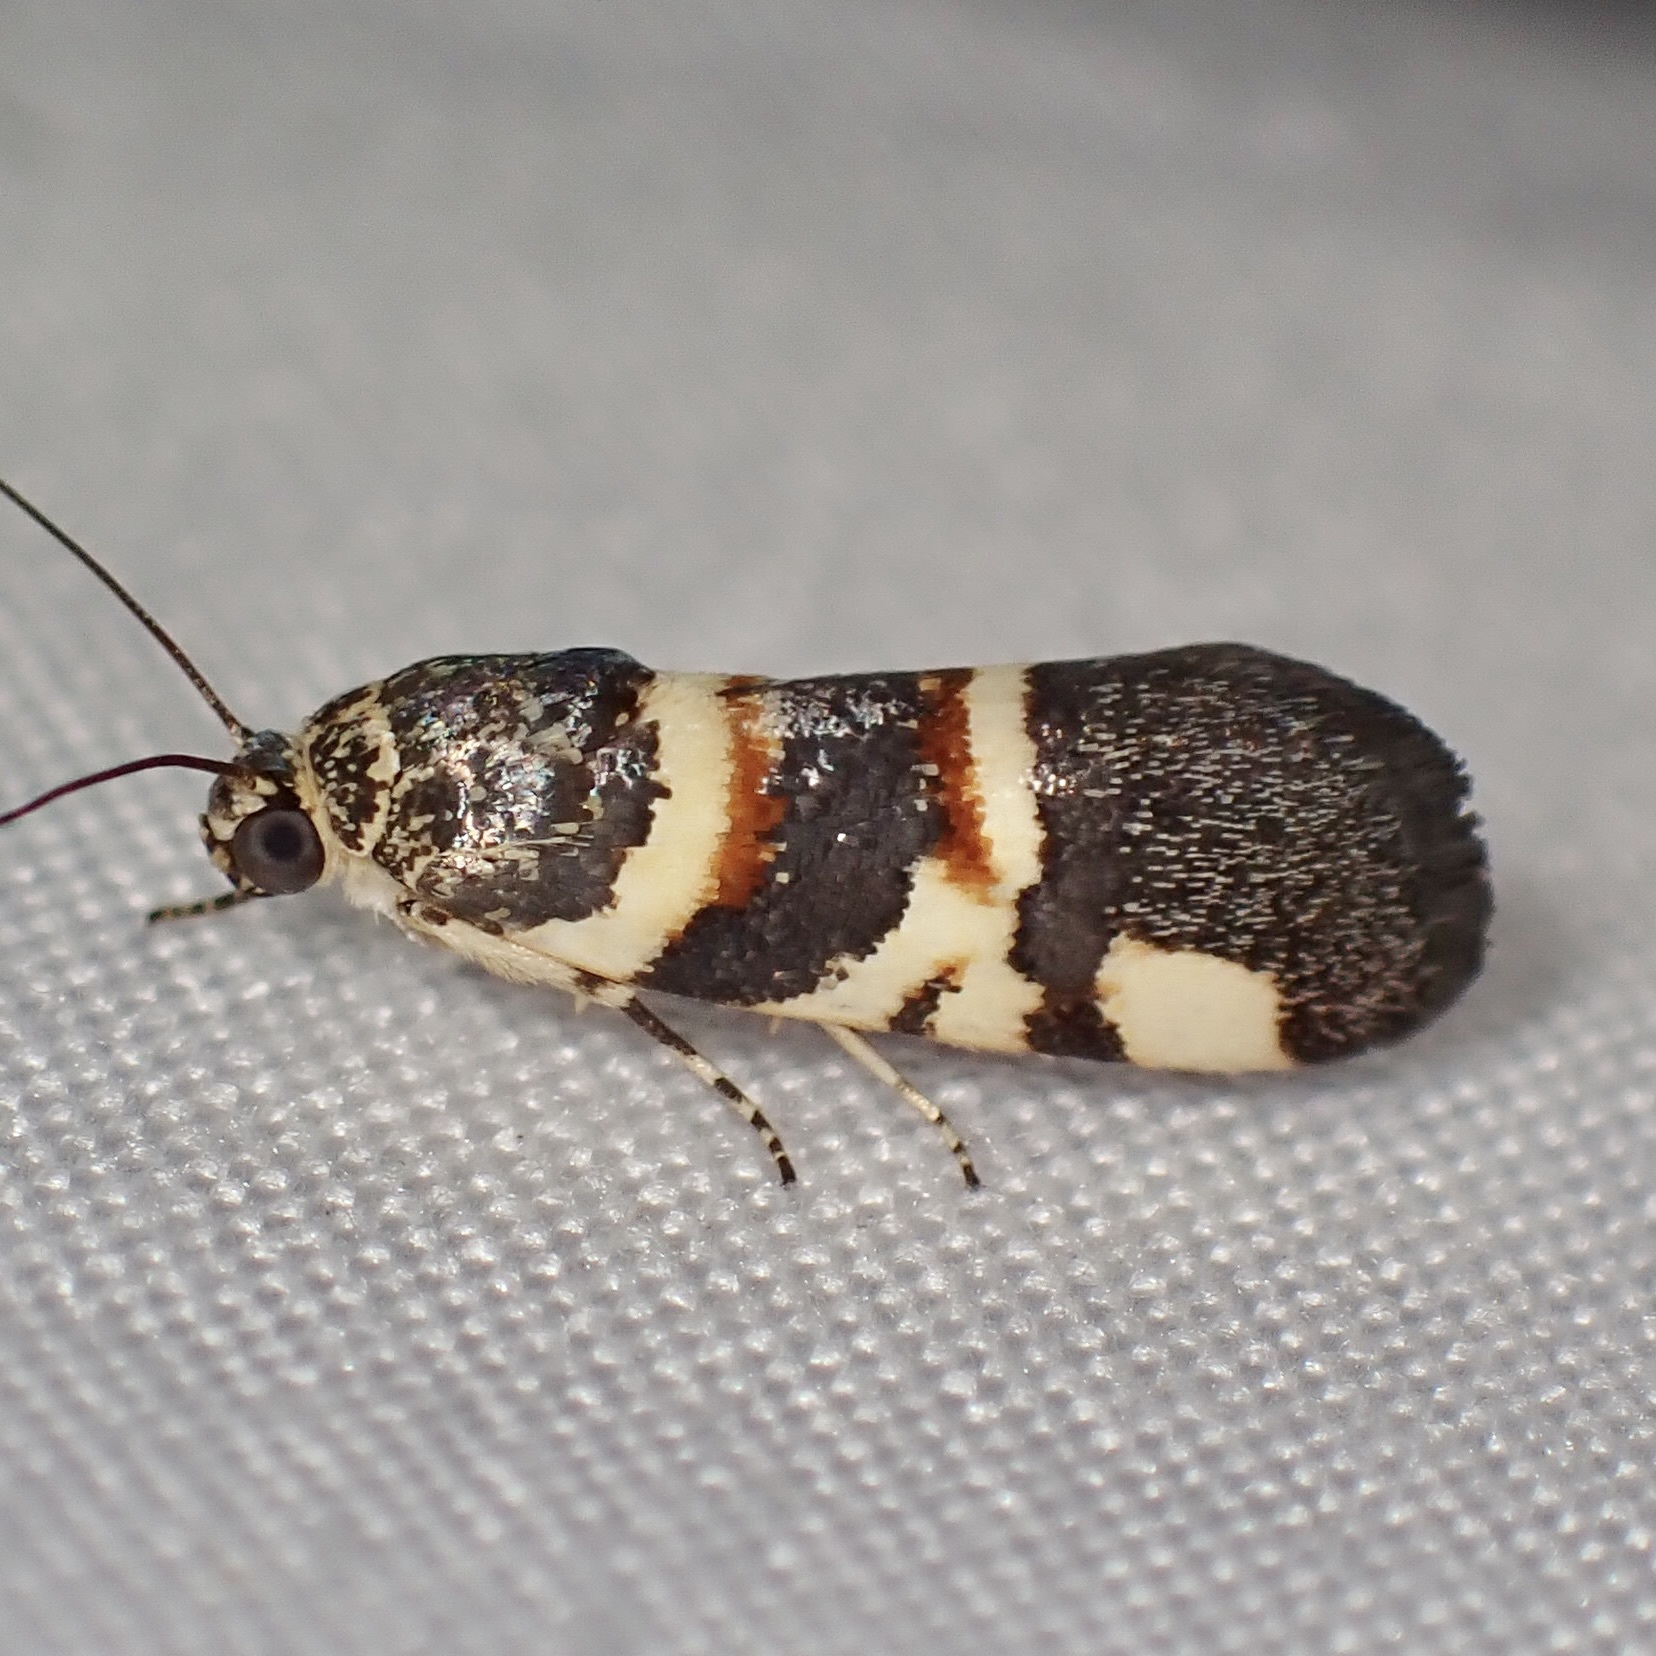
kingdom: Animalia
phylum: Arthropoda
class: Insecta
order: Lepidoptera
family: Noctuidae
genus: Spragueia
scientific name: Spragueia funeralis
